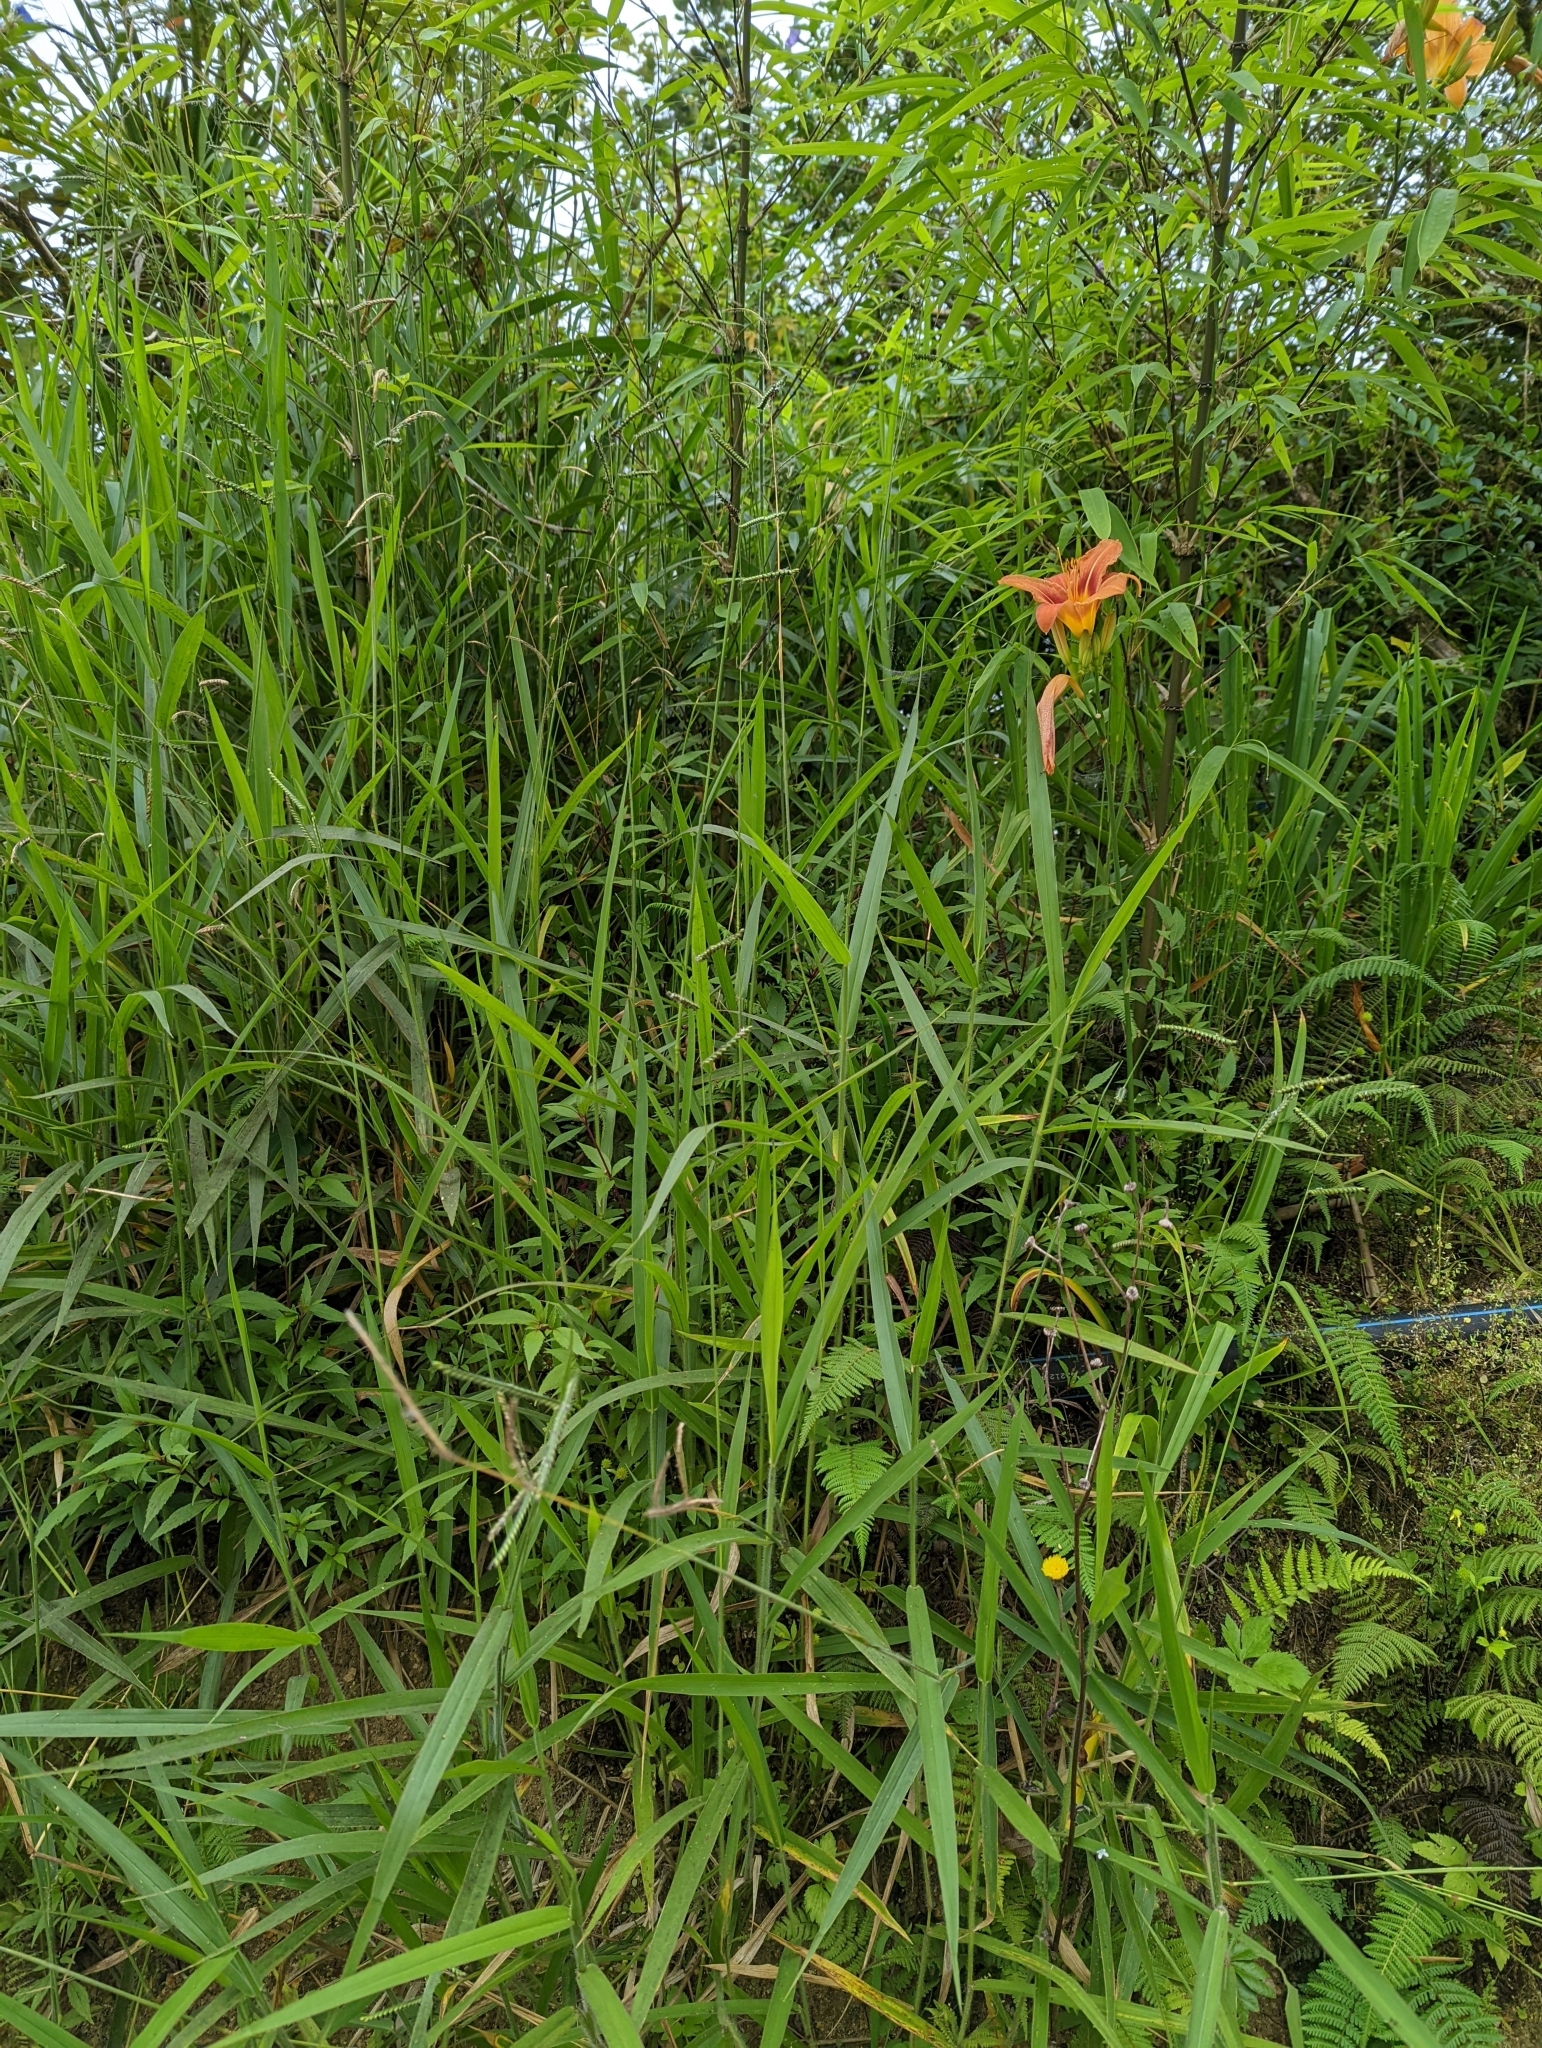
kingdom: Plantae
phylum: Tracheophyta
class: Liliopsida
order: Asparagales
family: Asphodelaceae
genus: Hemerocallis
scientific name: Hemerocallis fulva
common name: Orange day-lily
